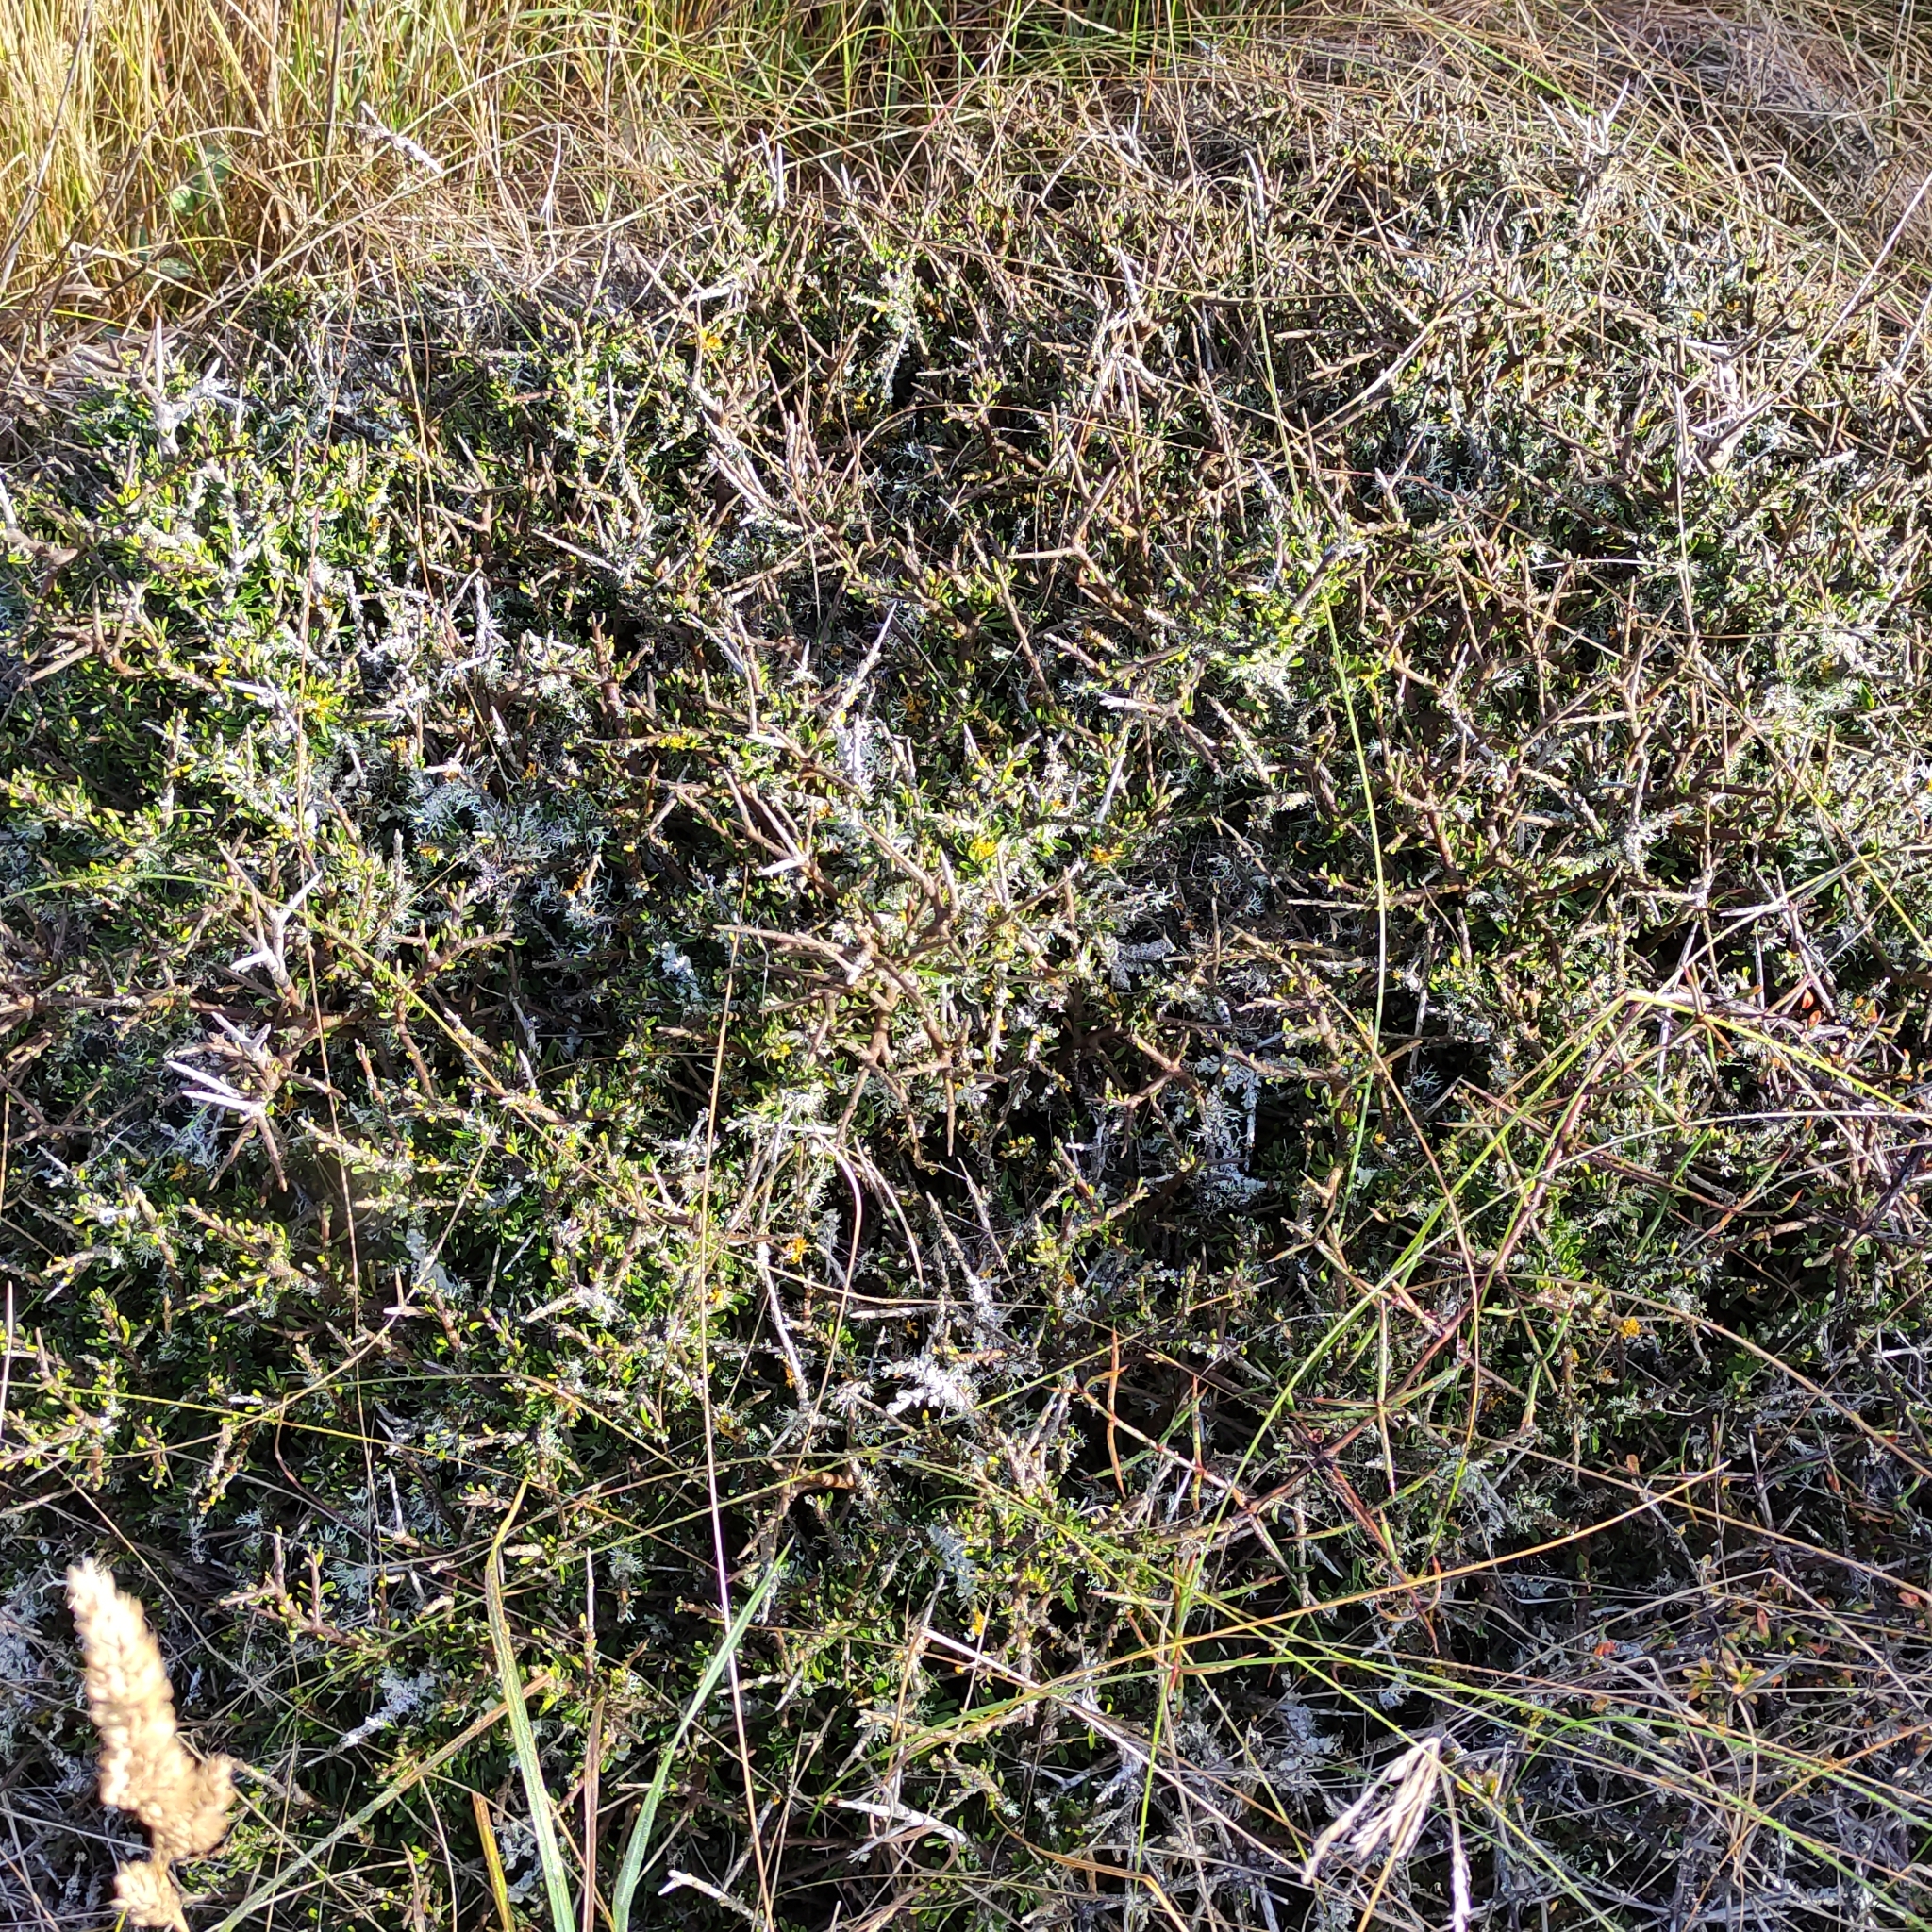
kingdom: Plantae
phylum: Tracheophyta
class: Magnoliopsida
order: Malpighiales
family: Violaceae
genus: Melicytus
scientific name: Melicytus alpinus
